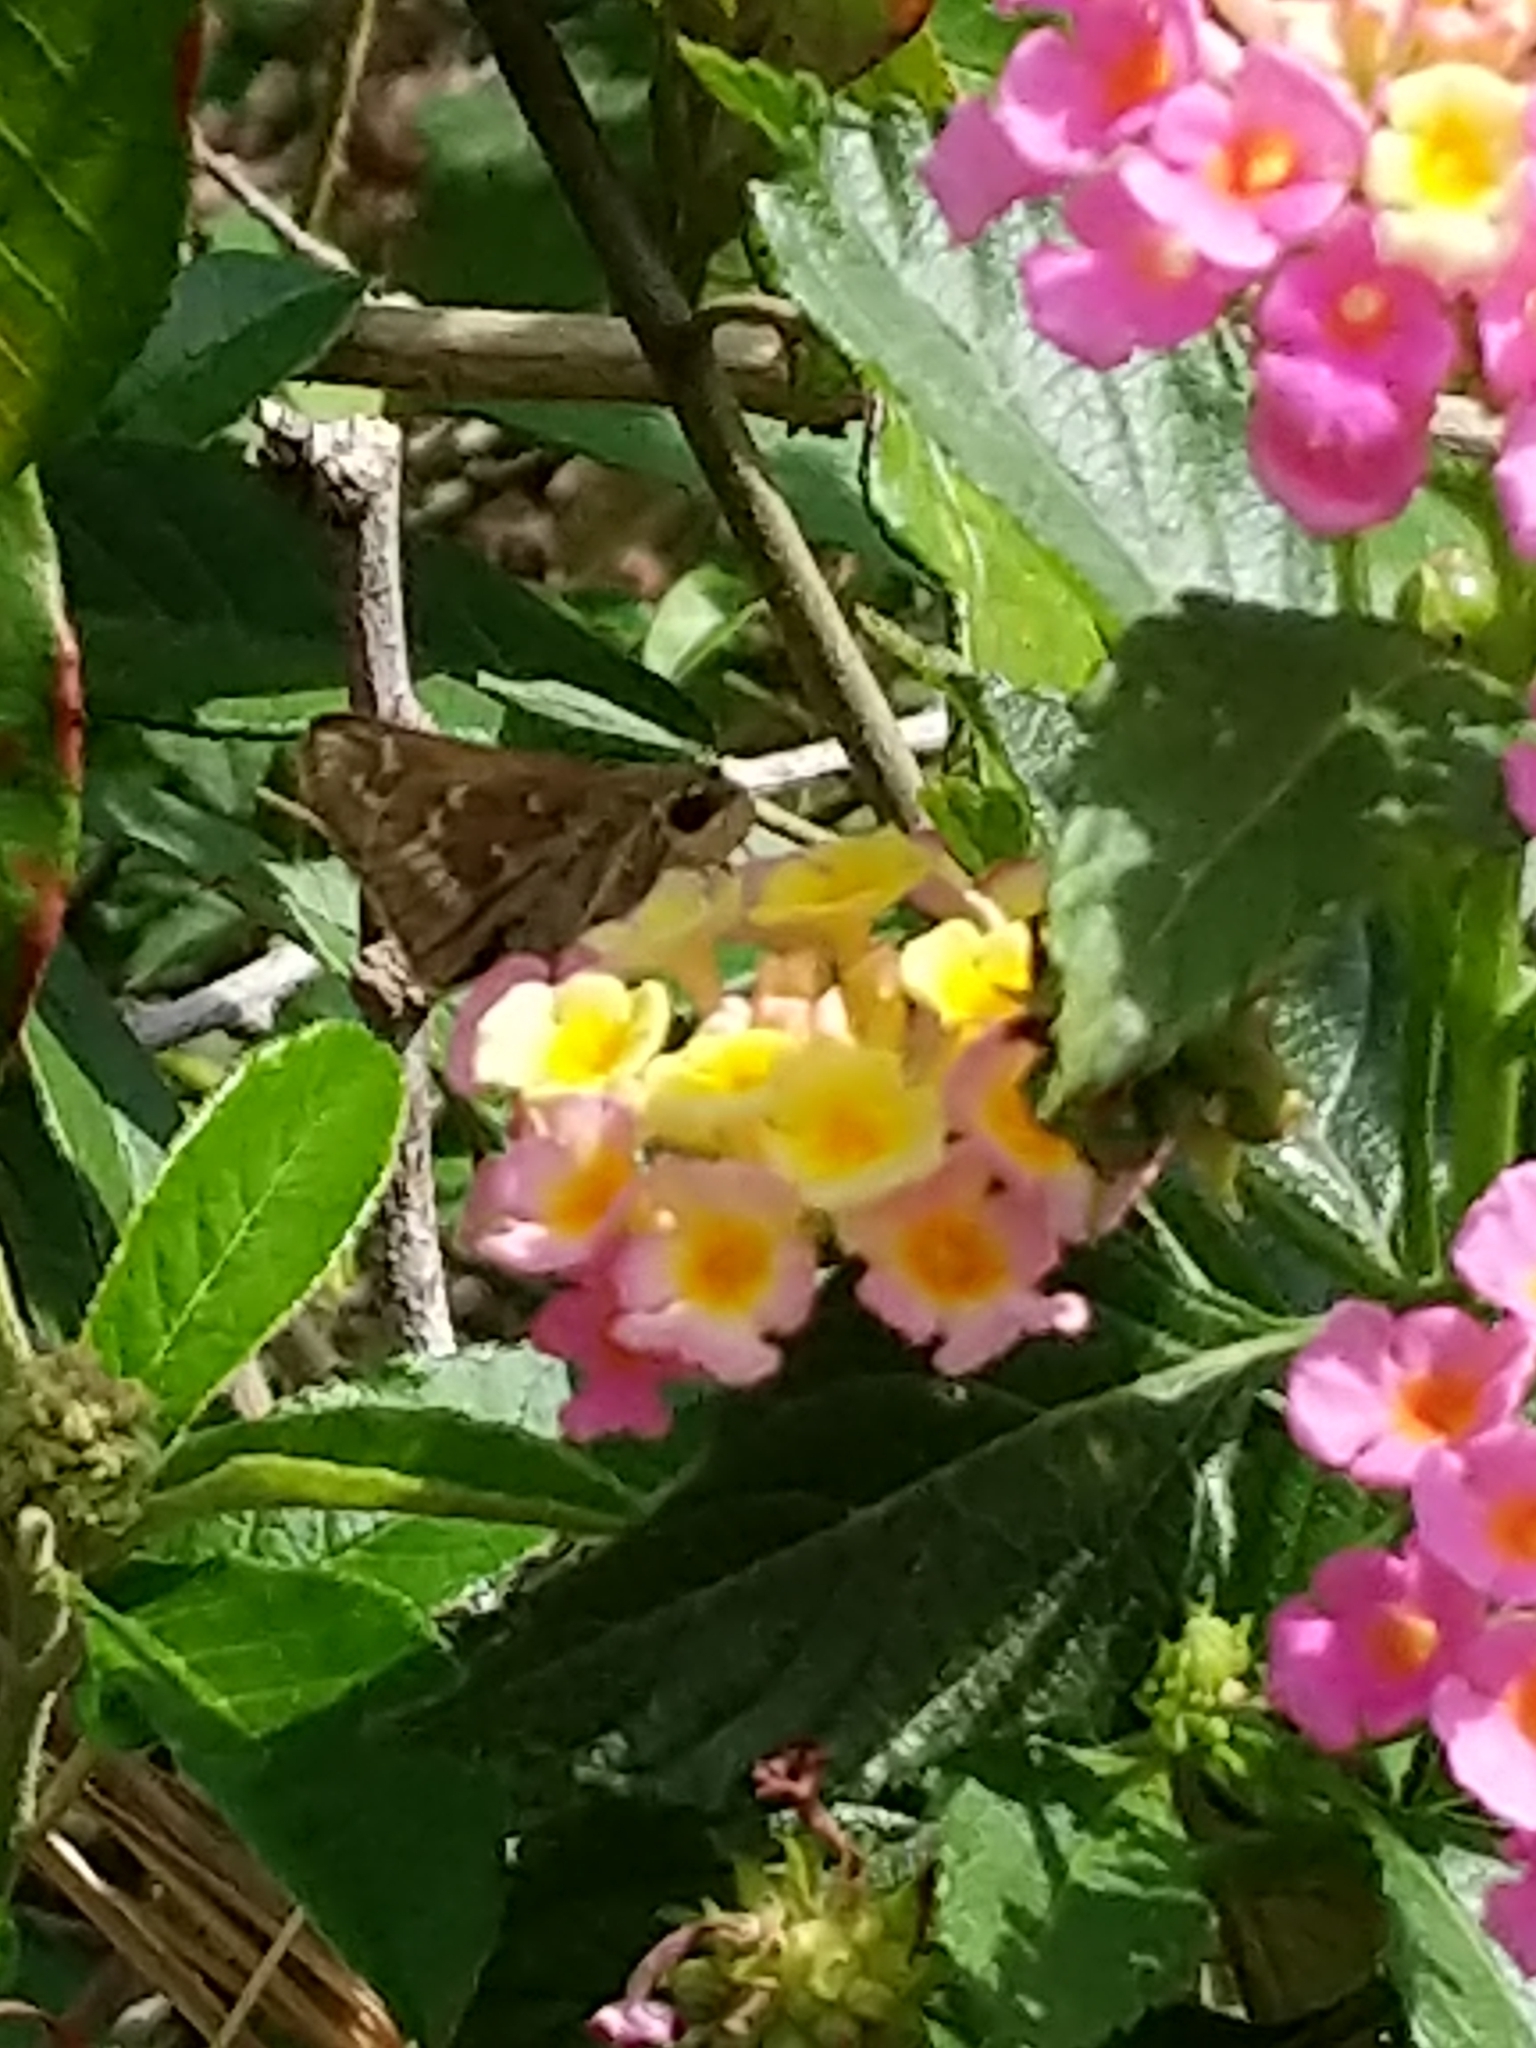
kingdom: Animalia
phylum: Arthropoda
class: Insecta
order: Lepidoptera
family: Hesperiidae
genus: Atalopedes
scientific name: Atalopedes
